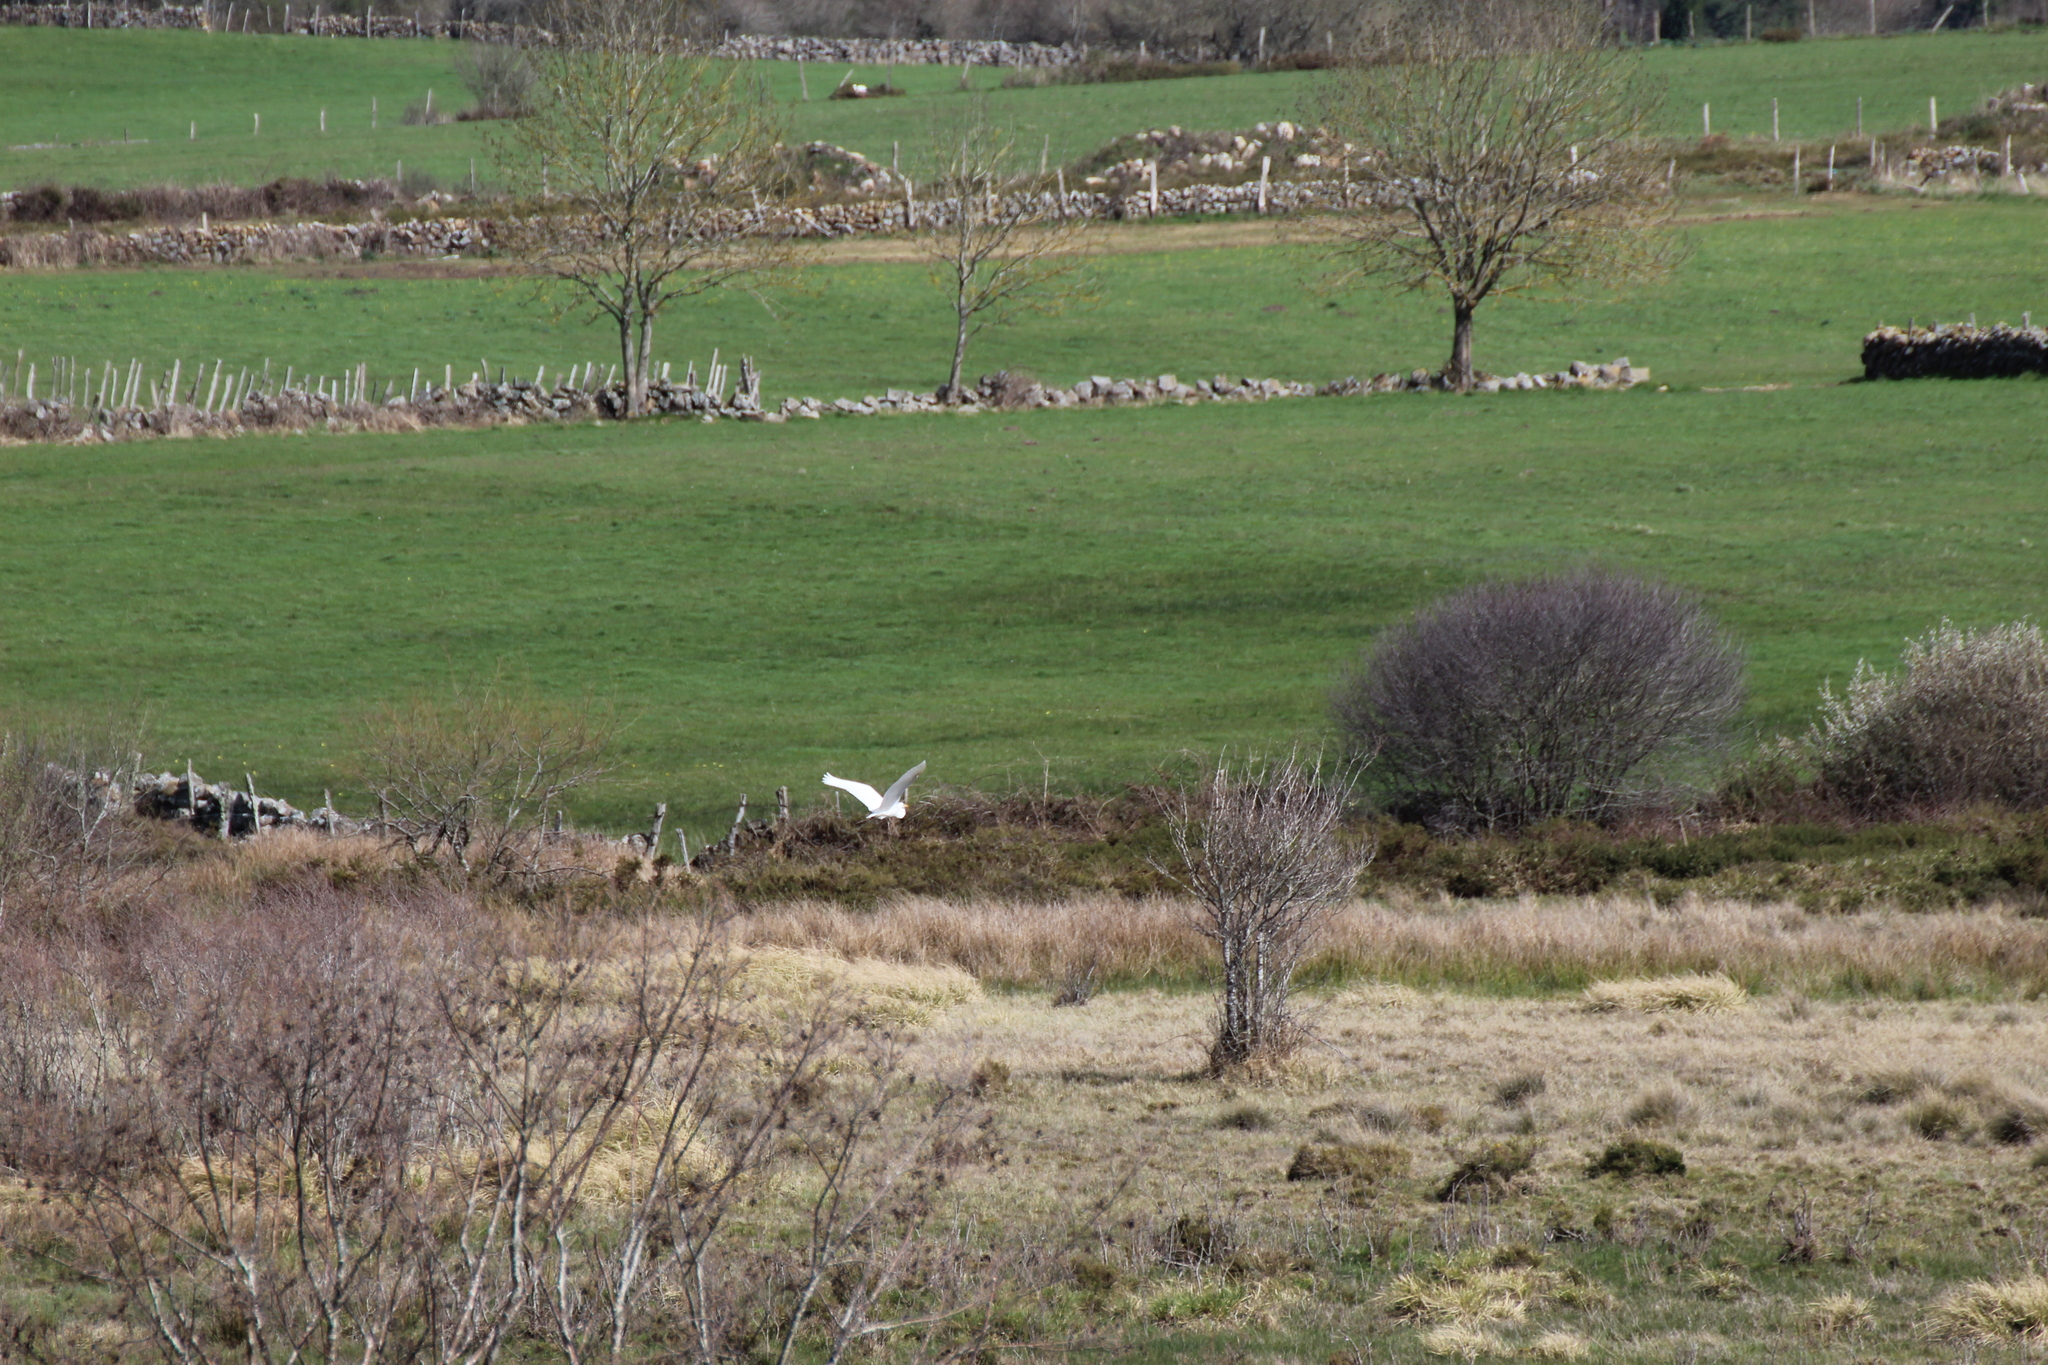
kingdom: Animalia
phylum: Chordata
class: Aves
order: Pelecaniformes
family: Ardeidae
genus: Ardea
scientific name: Ardea alba
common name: Great egret
